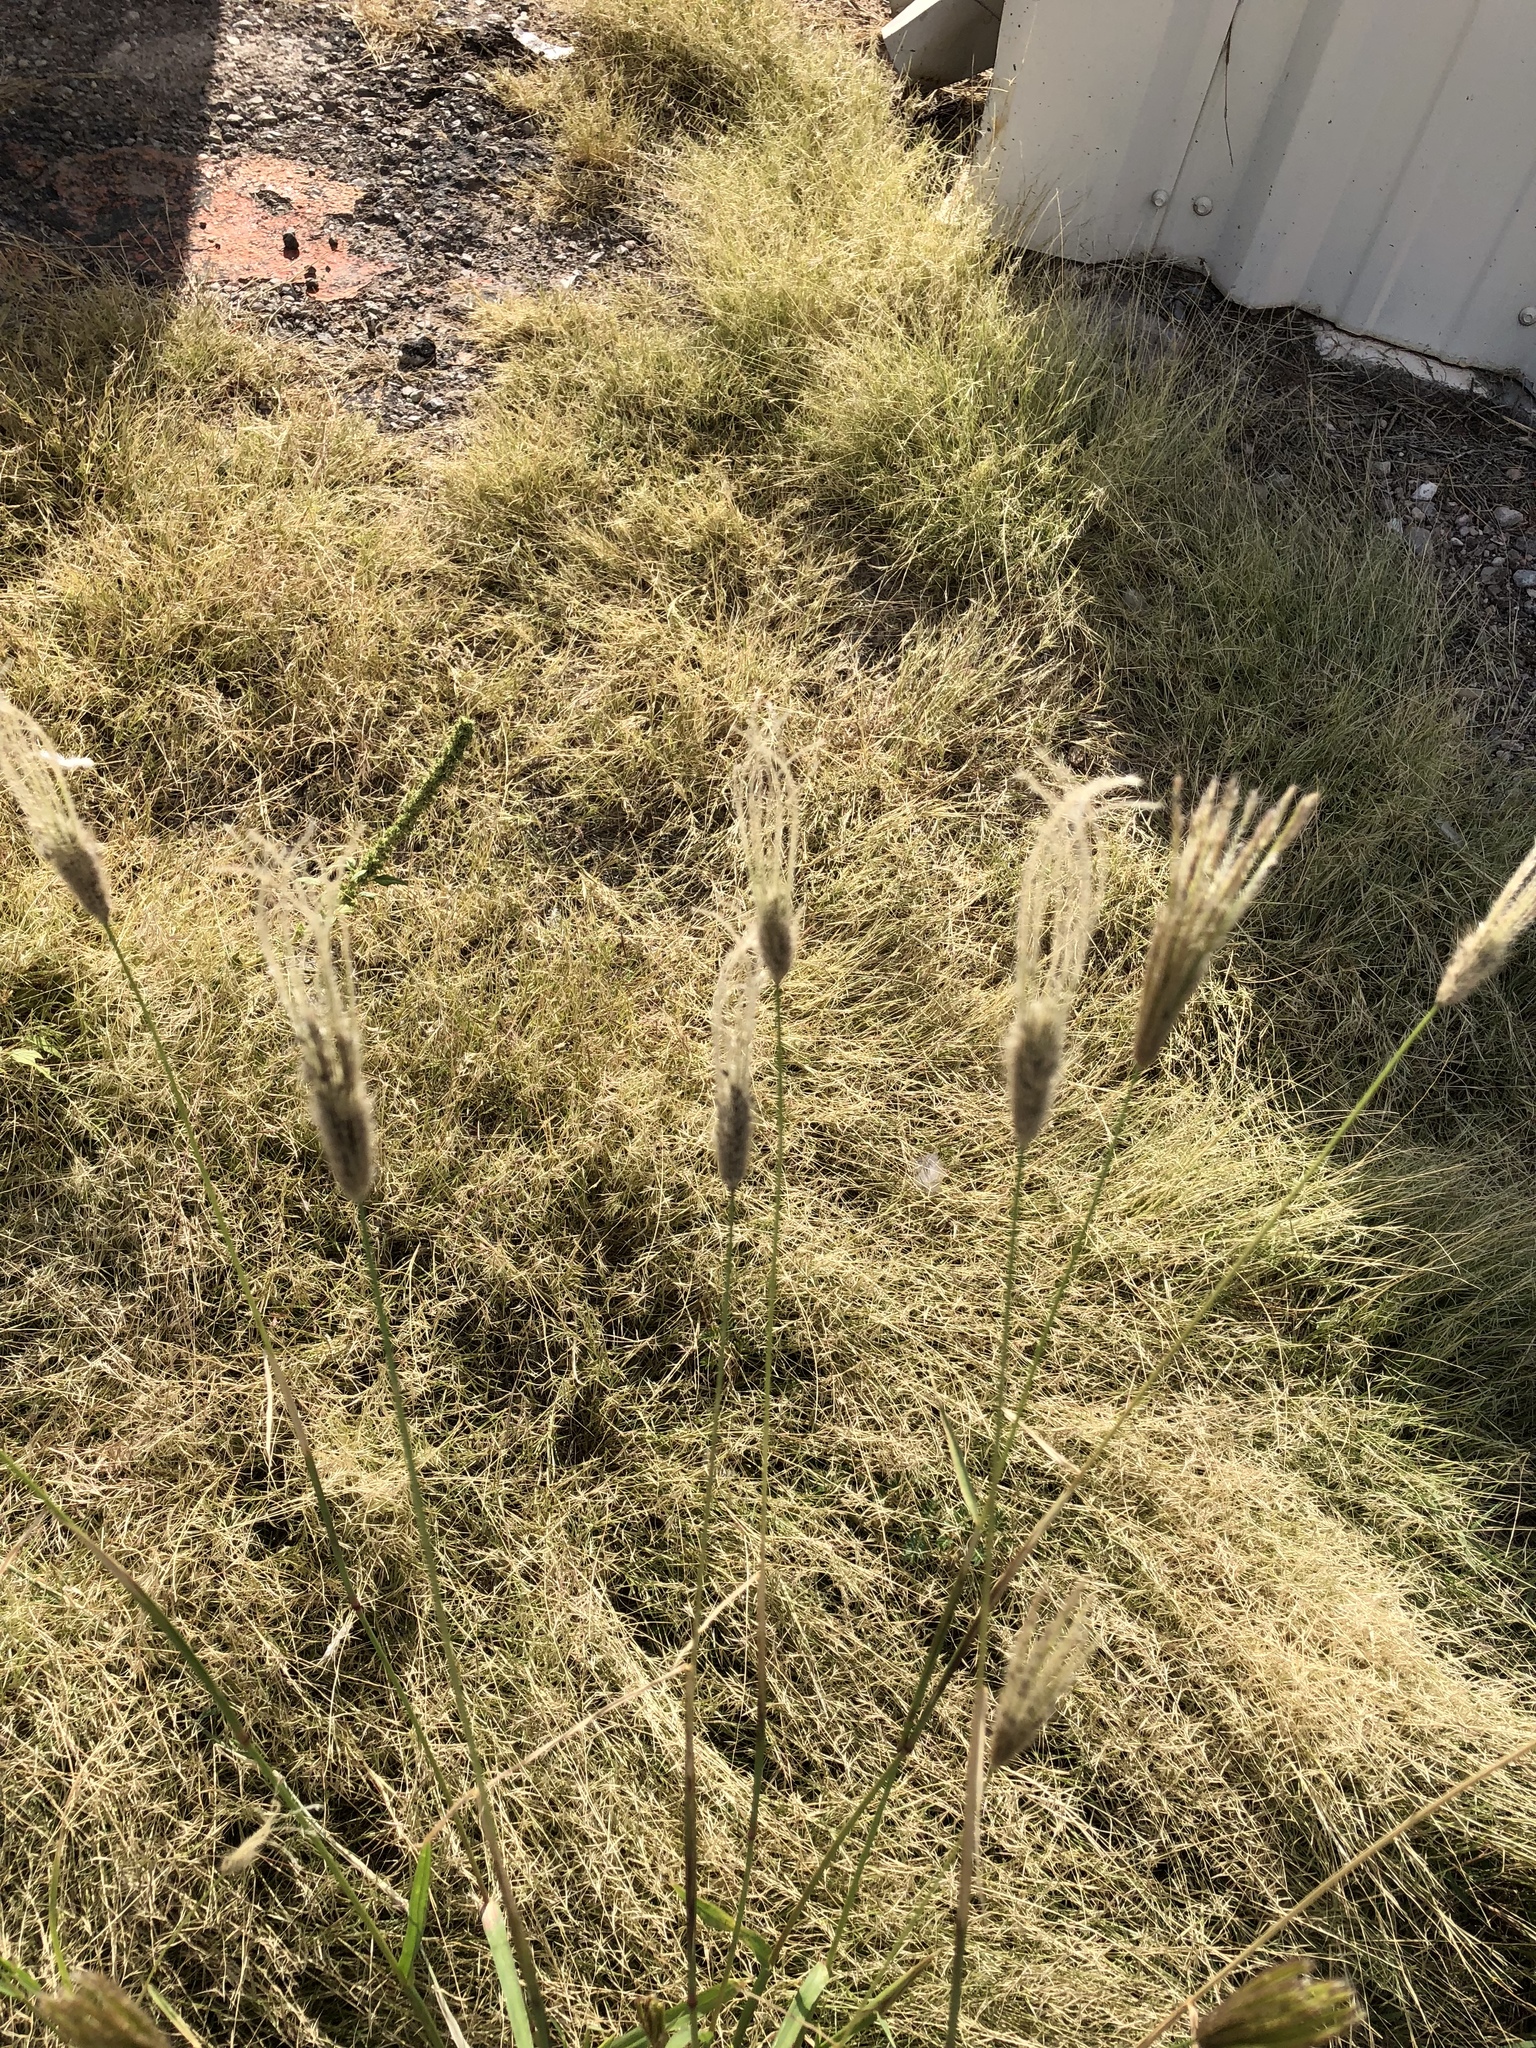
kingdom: Plantae
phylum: Tracheophyta
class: Liliopsida
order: Poales
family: Poaceae
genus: Chloris
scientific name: Chloris virgata
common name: Feathery rhodes-grass
